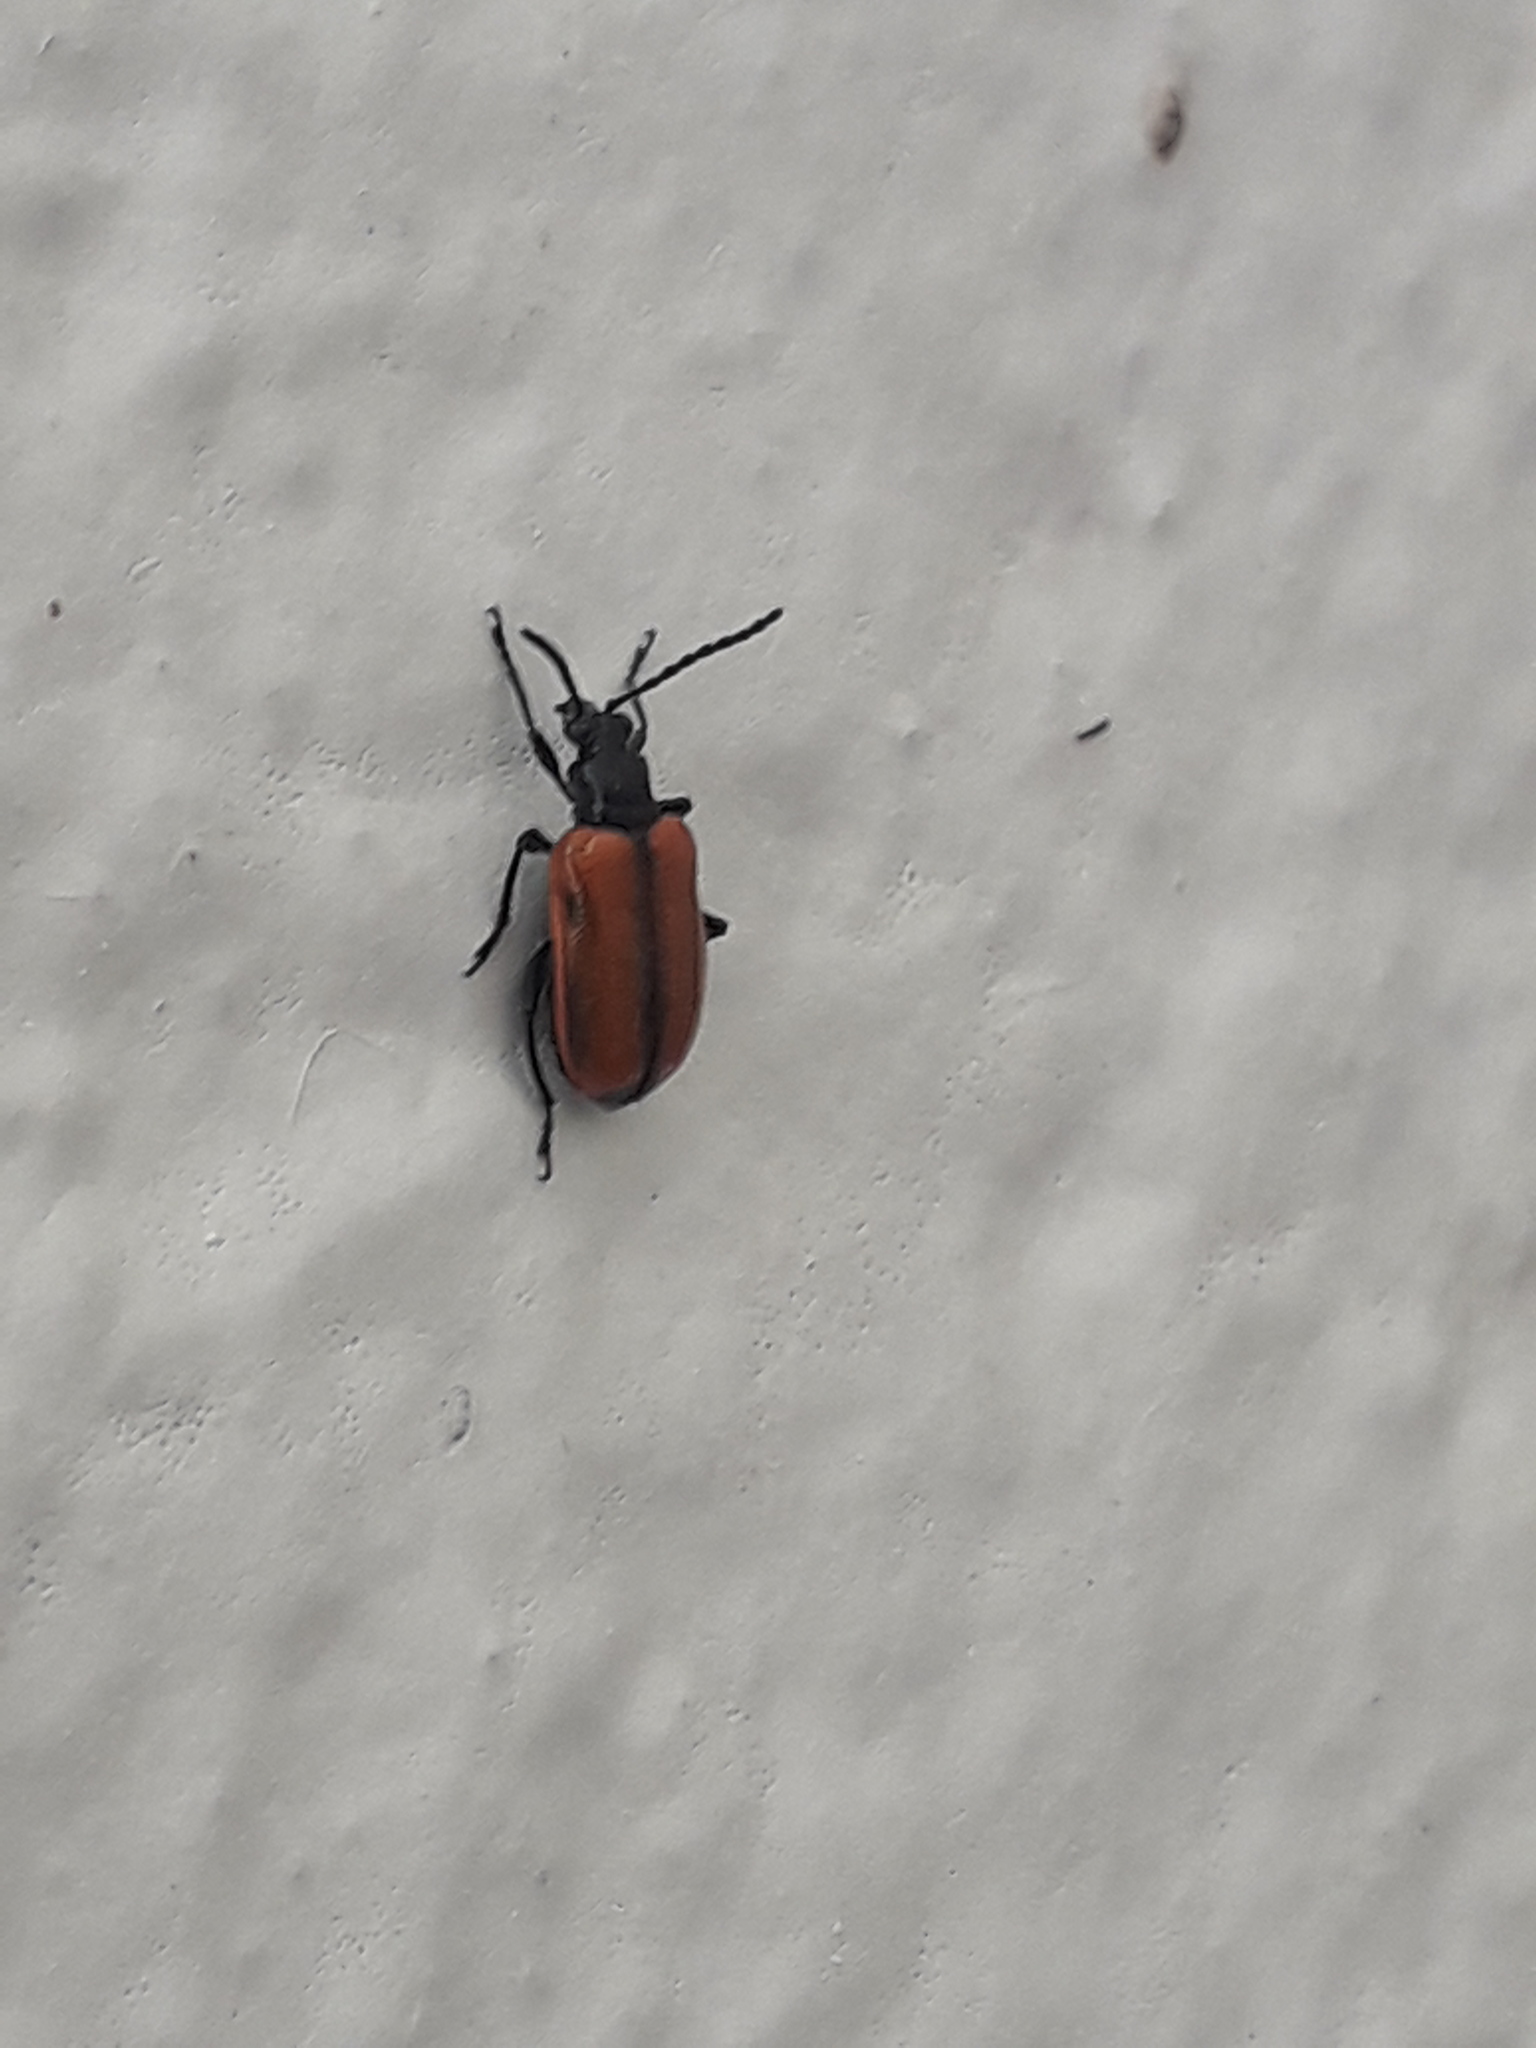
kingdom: Animalia
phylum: Arthropoda
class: Insecta
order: Coleoptera
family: Chrysomelidae
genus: Lema
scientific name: Lema confusa
